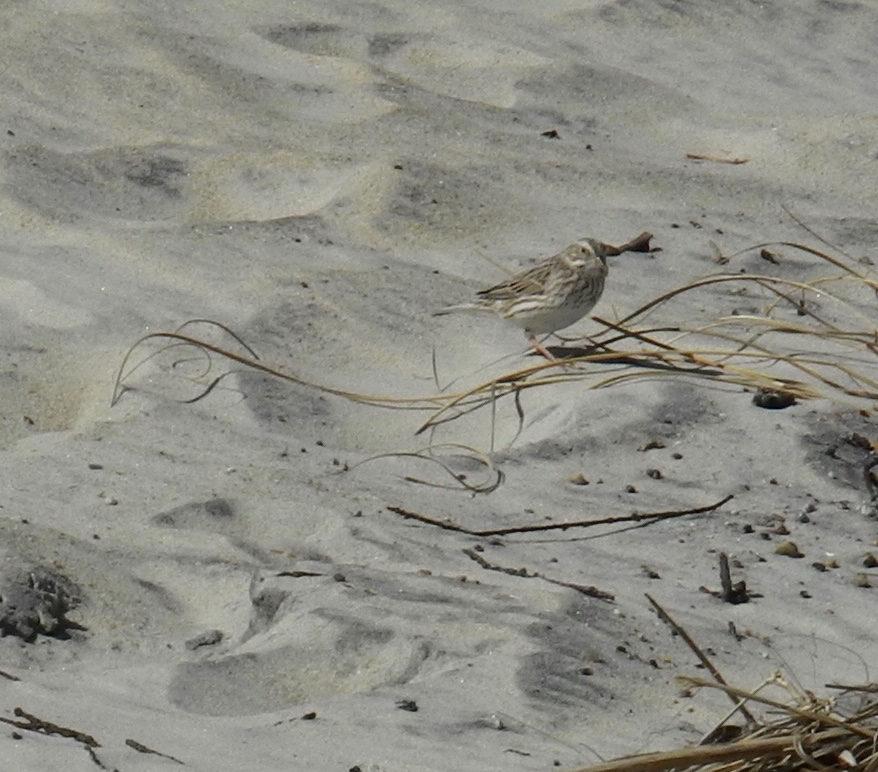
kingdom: Animalia
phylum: Chordata
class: Aves
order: Passeriformes
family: Passerellidae
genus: Passerculus
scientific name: Passerculus sandwichensis
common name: Savannah sparrow
